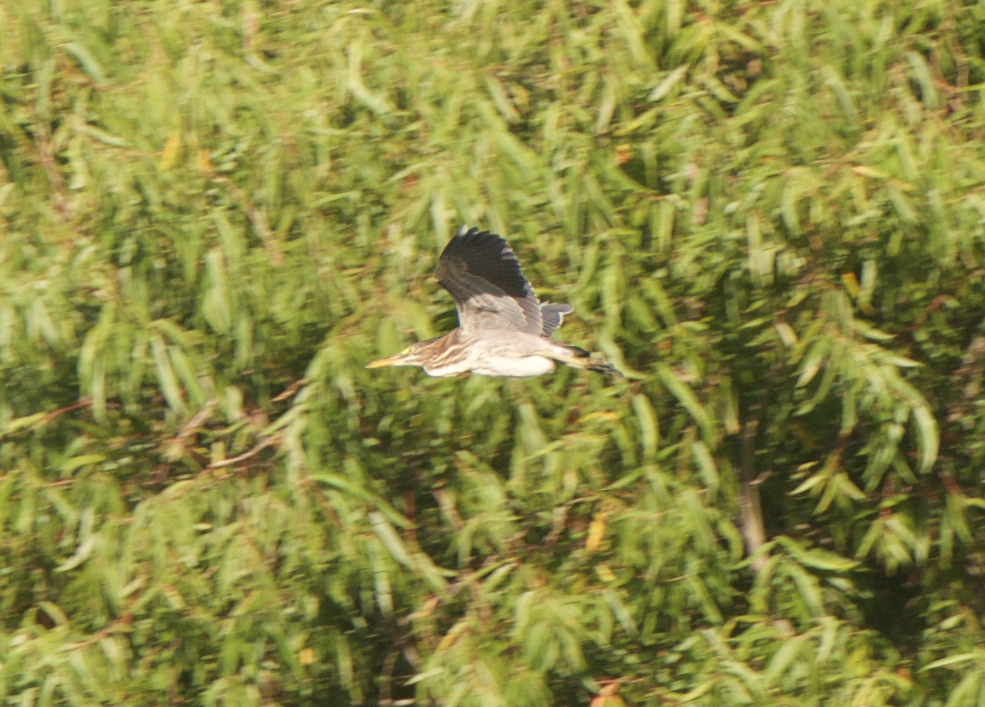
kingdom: Animalia
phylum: Chordata
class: Aves
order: Pelecaniformes
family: Ardeidae
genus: Butorides
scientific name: Butorides virescens
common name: Green heron
